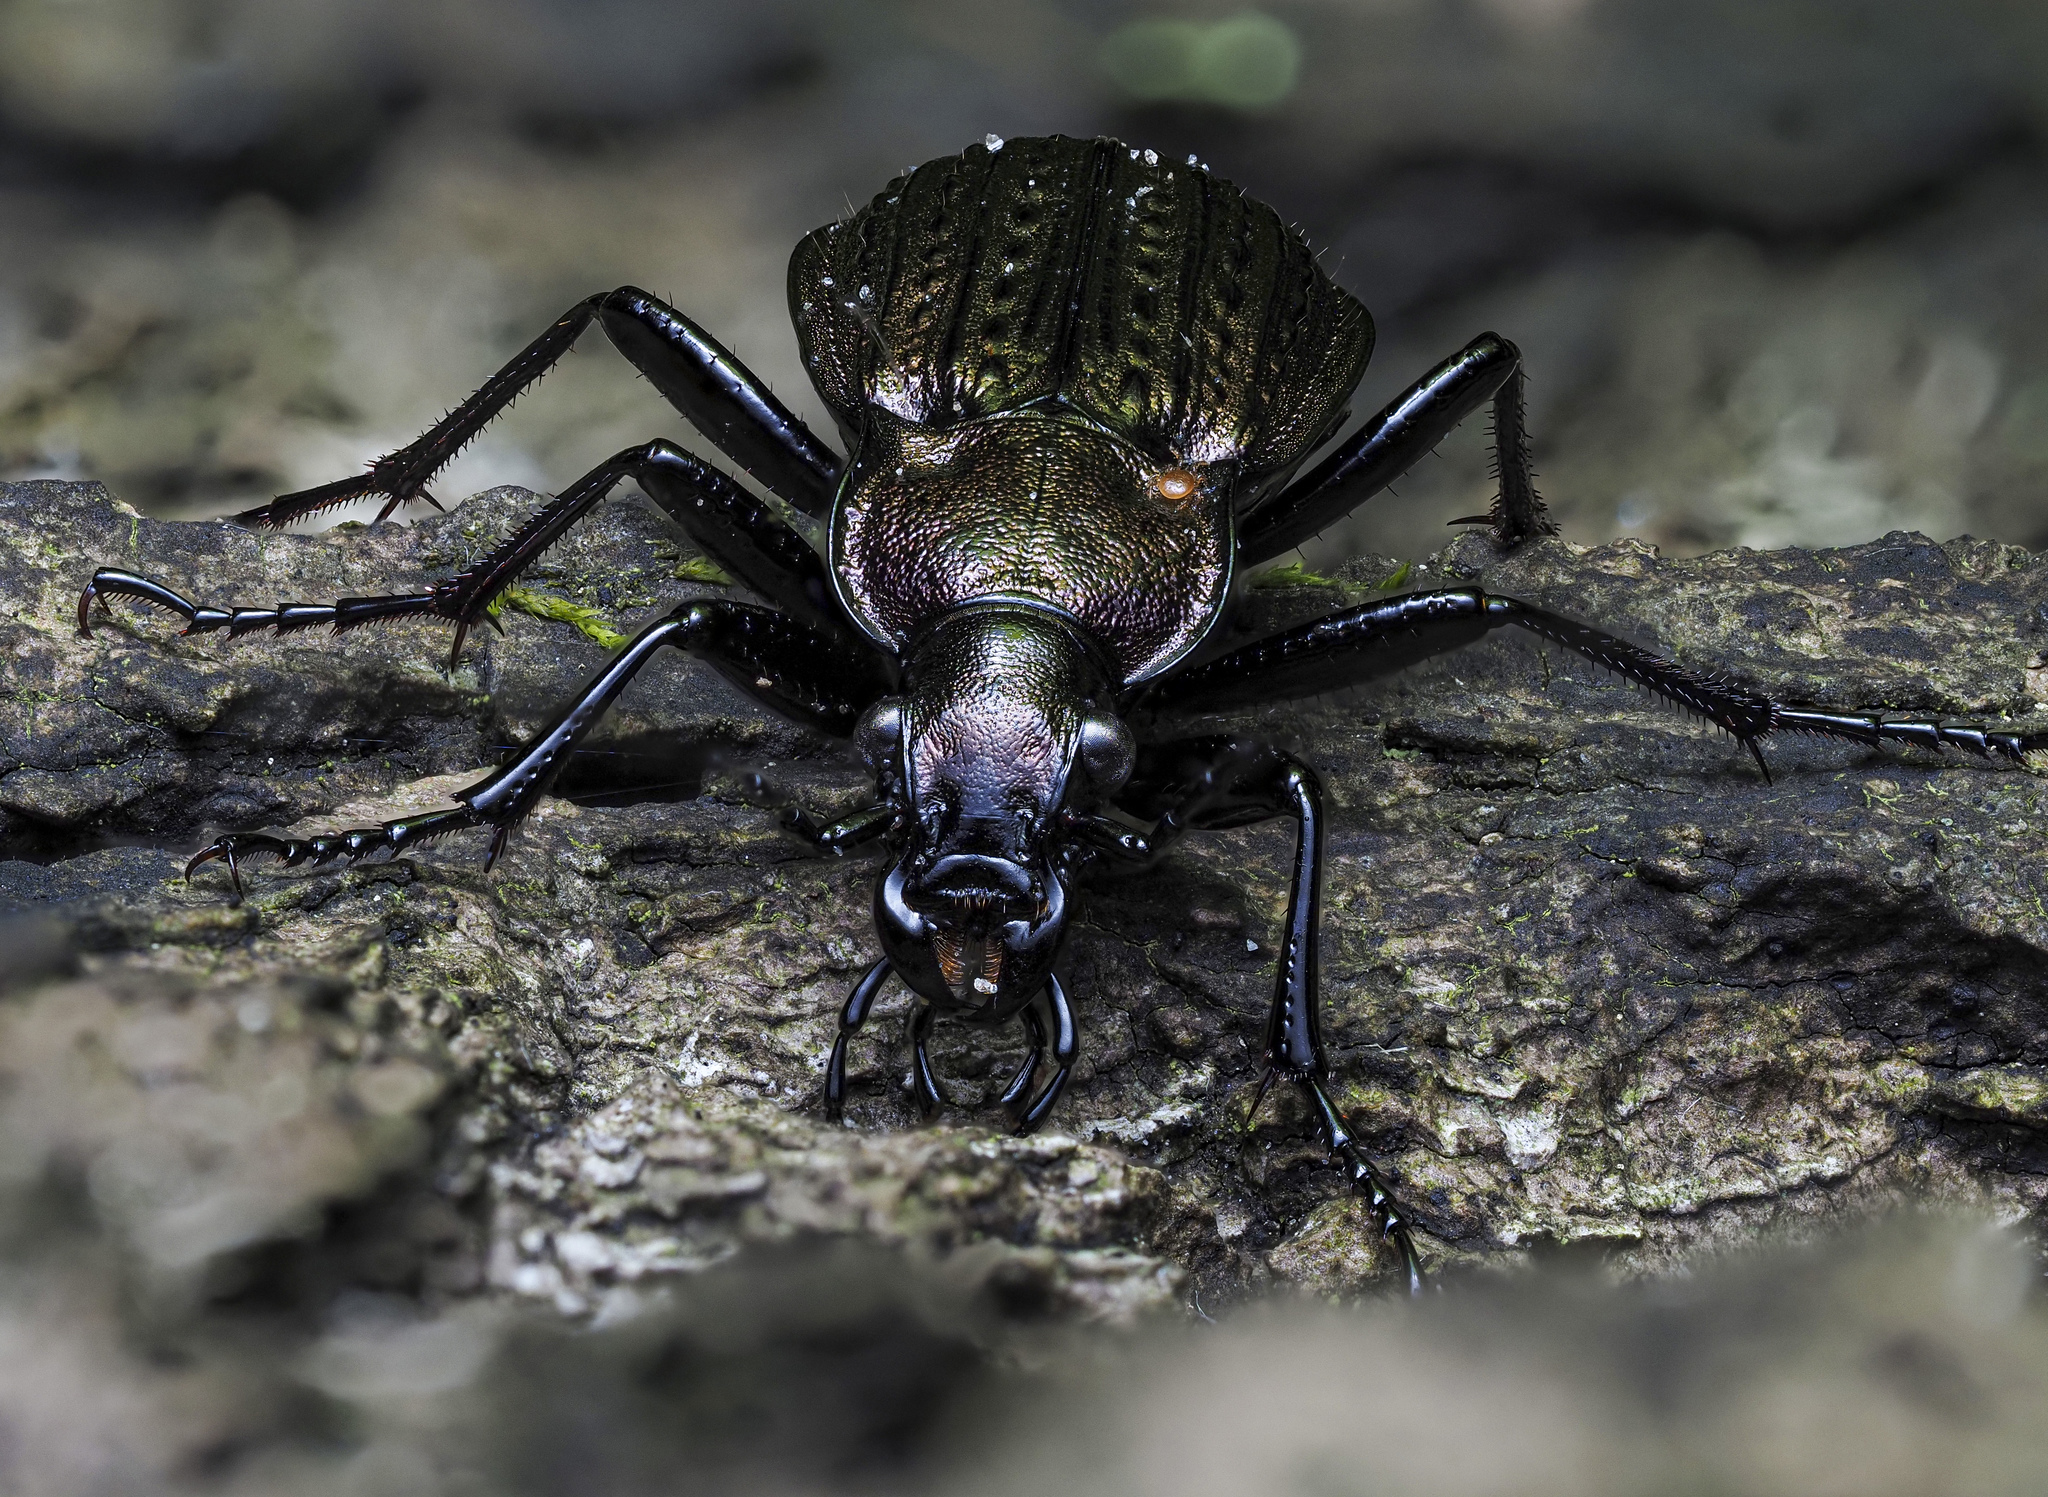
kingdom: Animalia
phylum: Arthropoda
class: Insecta
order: Coleoptera
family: Carabidae
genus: Carabus
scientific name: Carabus granulatus
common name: Granulate ground beetle
